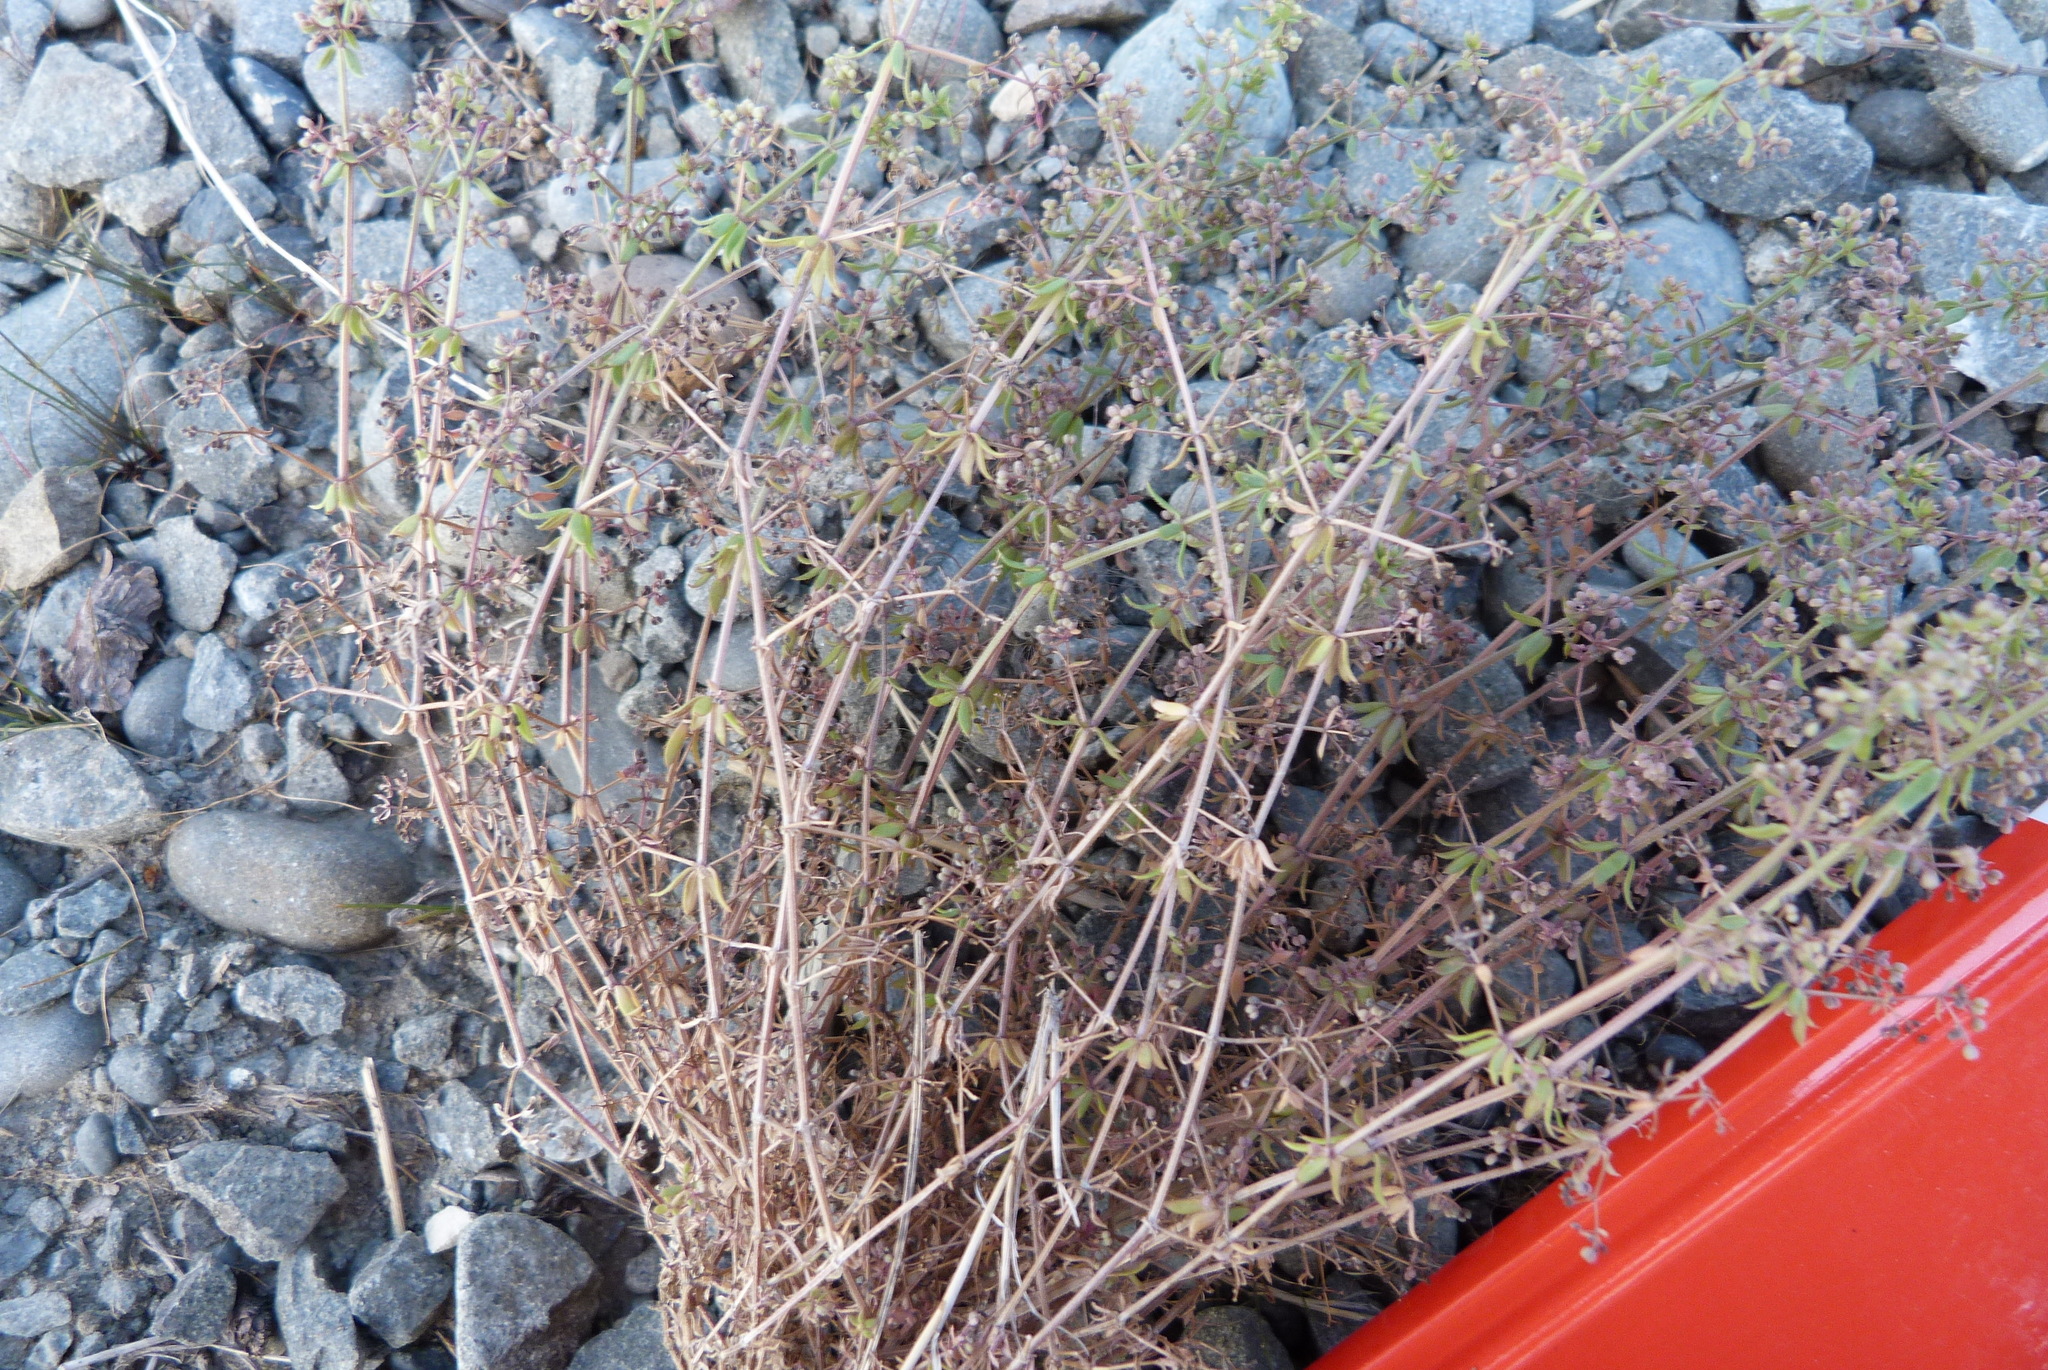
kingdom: Plantae
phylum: Tracheophyta
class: Magnoliopsida
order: Gentianales
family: Rubiaceae
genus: Galium
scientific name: Galium divaricatum
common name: Lamarck's bedstraw
